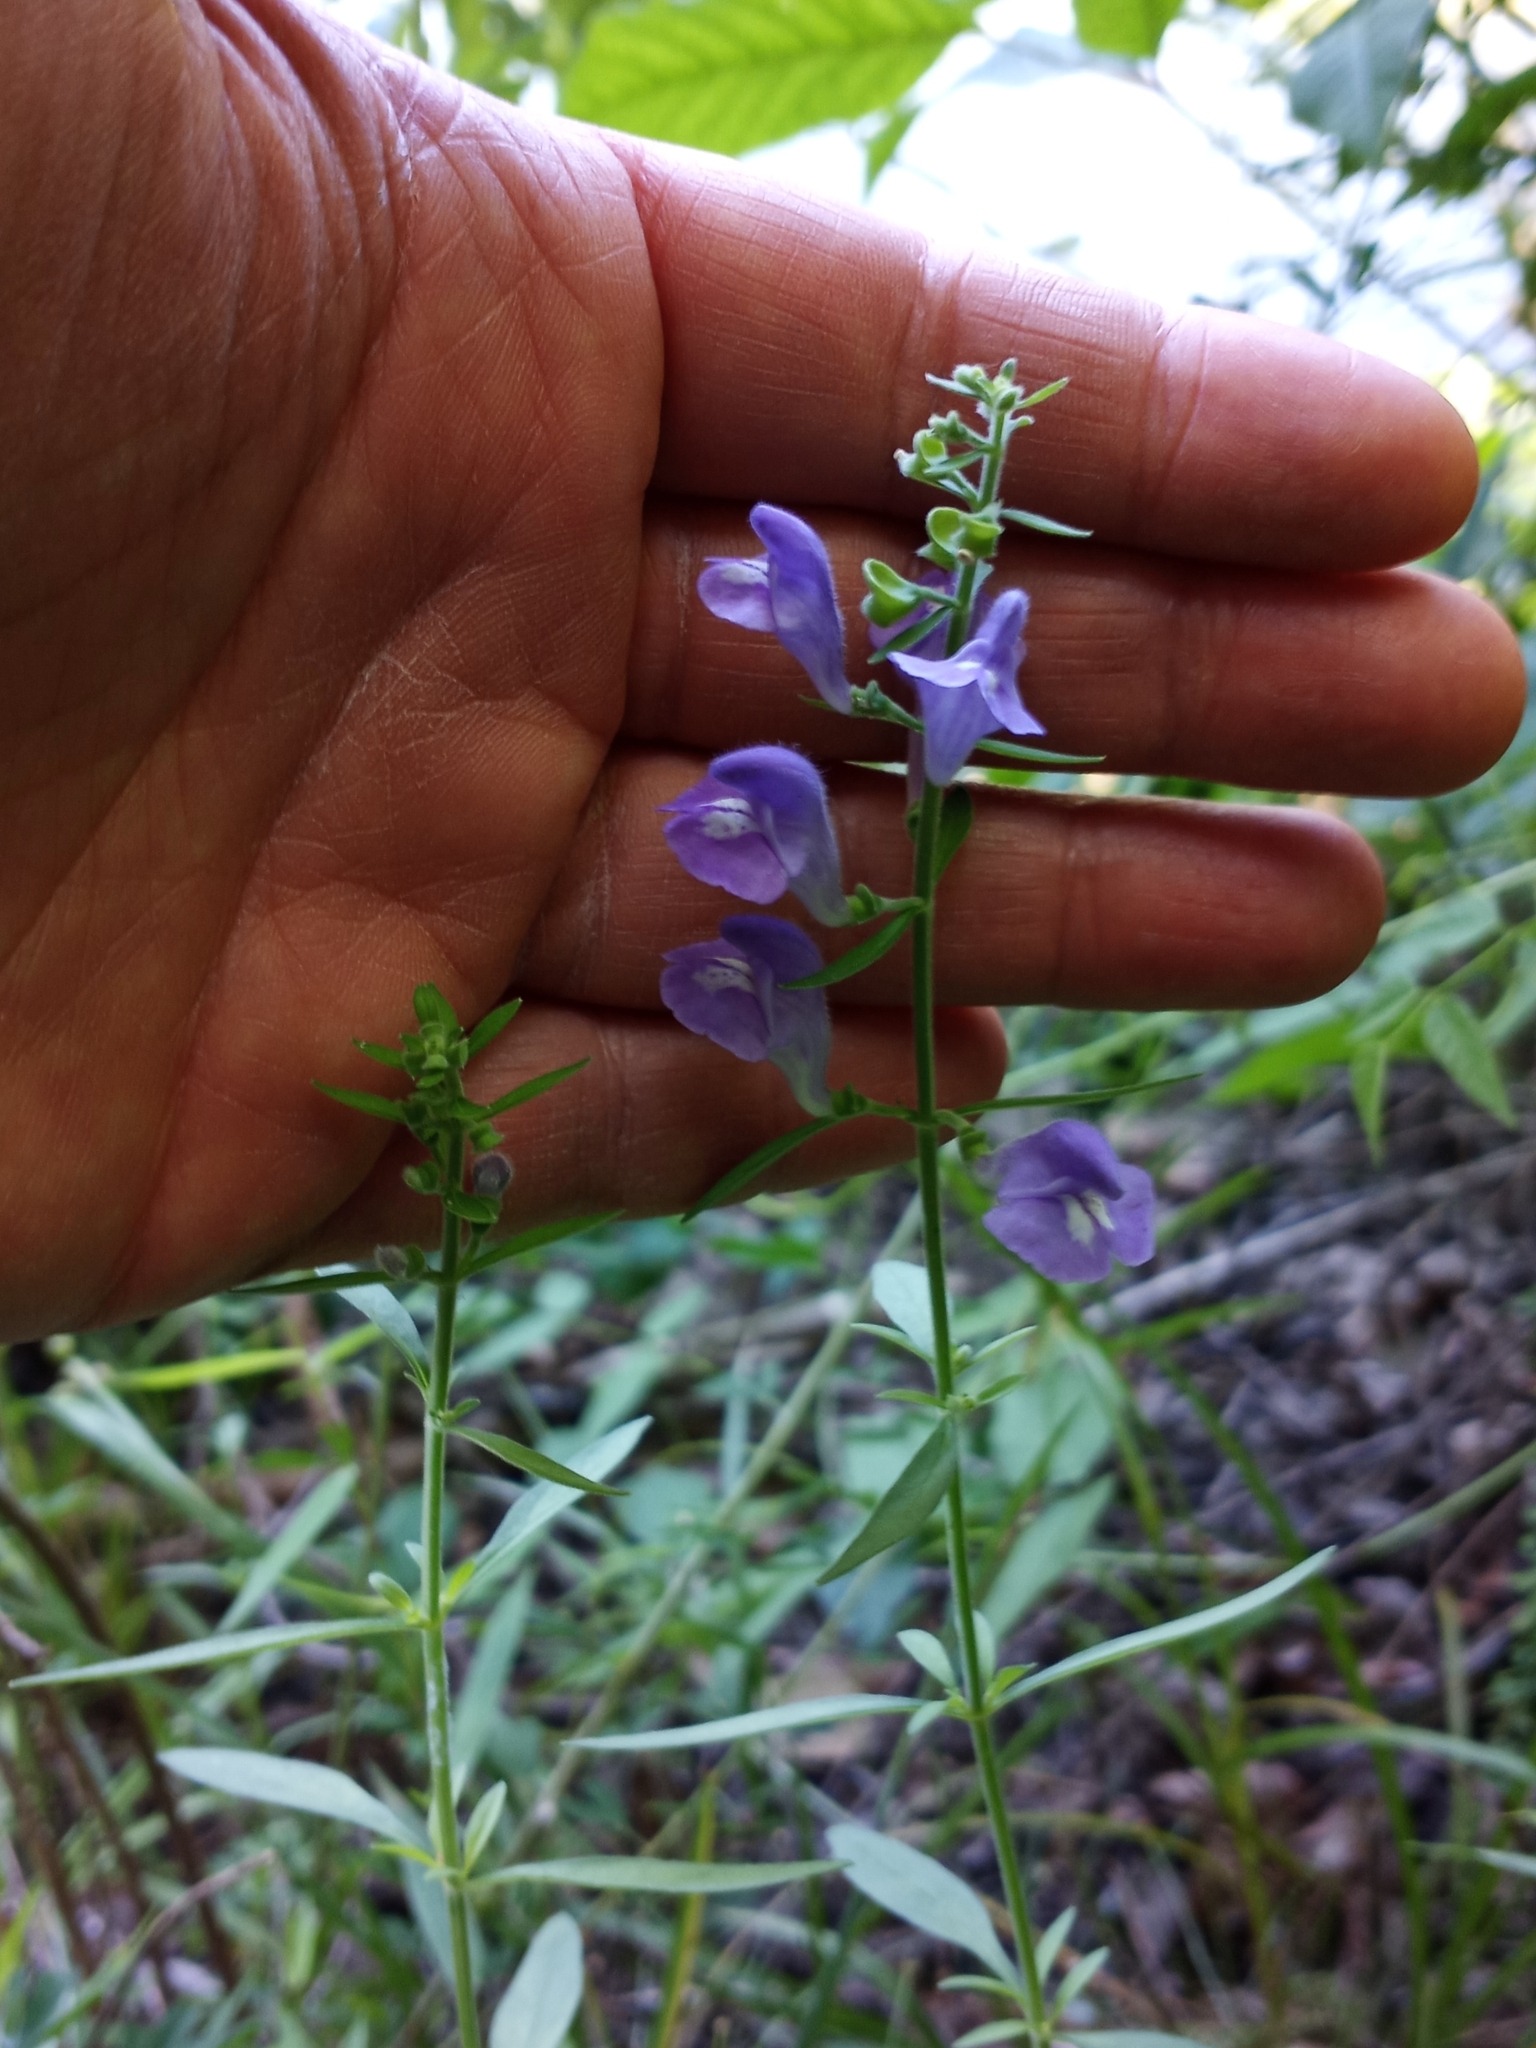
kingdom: Plantae
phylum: Tracheophyta
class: Magnoliopsida
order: Lamiales
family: Lamiaceae
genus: Scutellaria
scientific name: Scutellaria integrifolia
